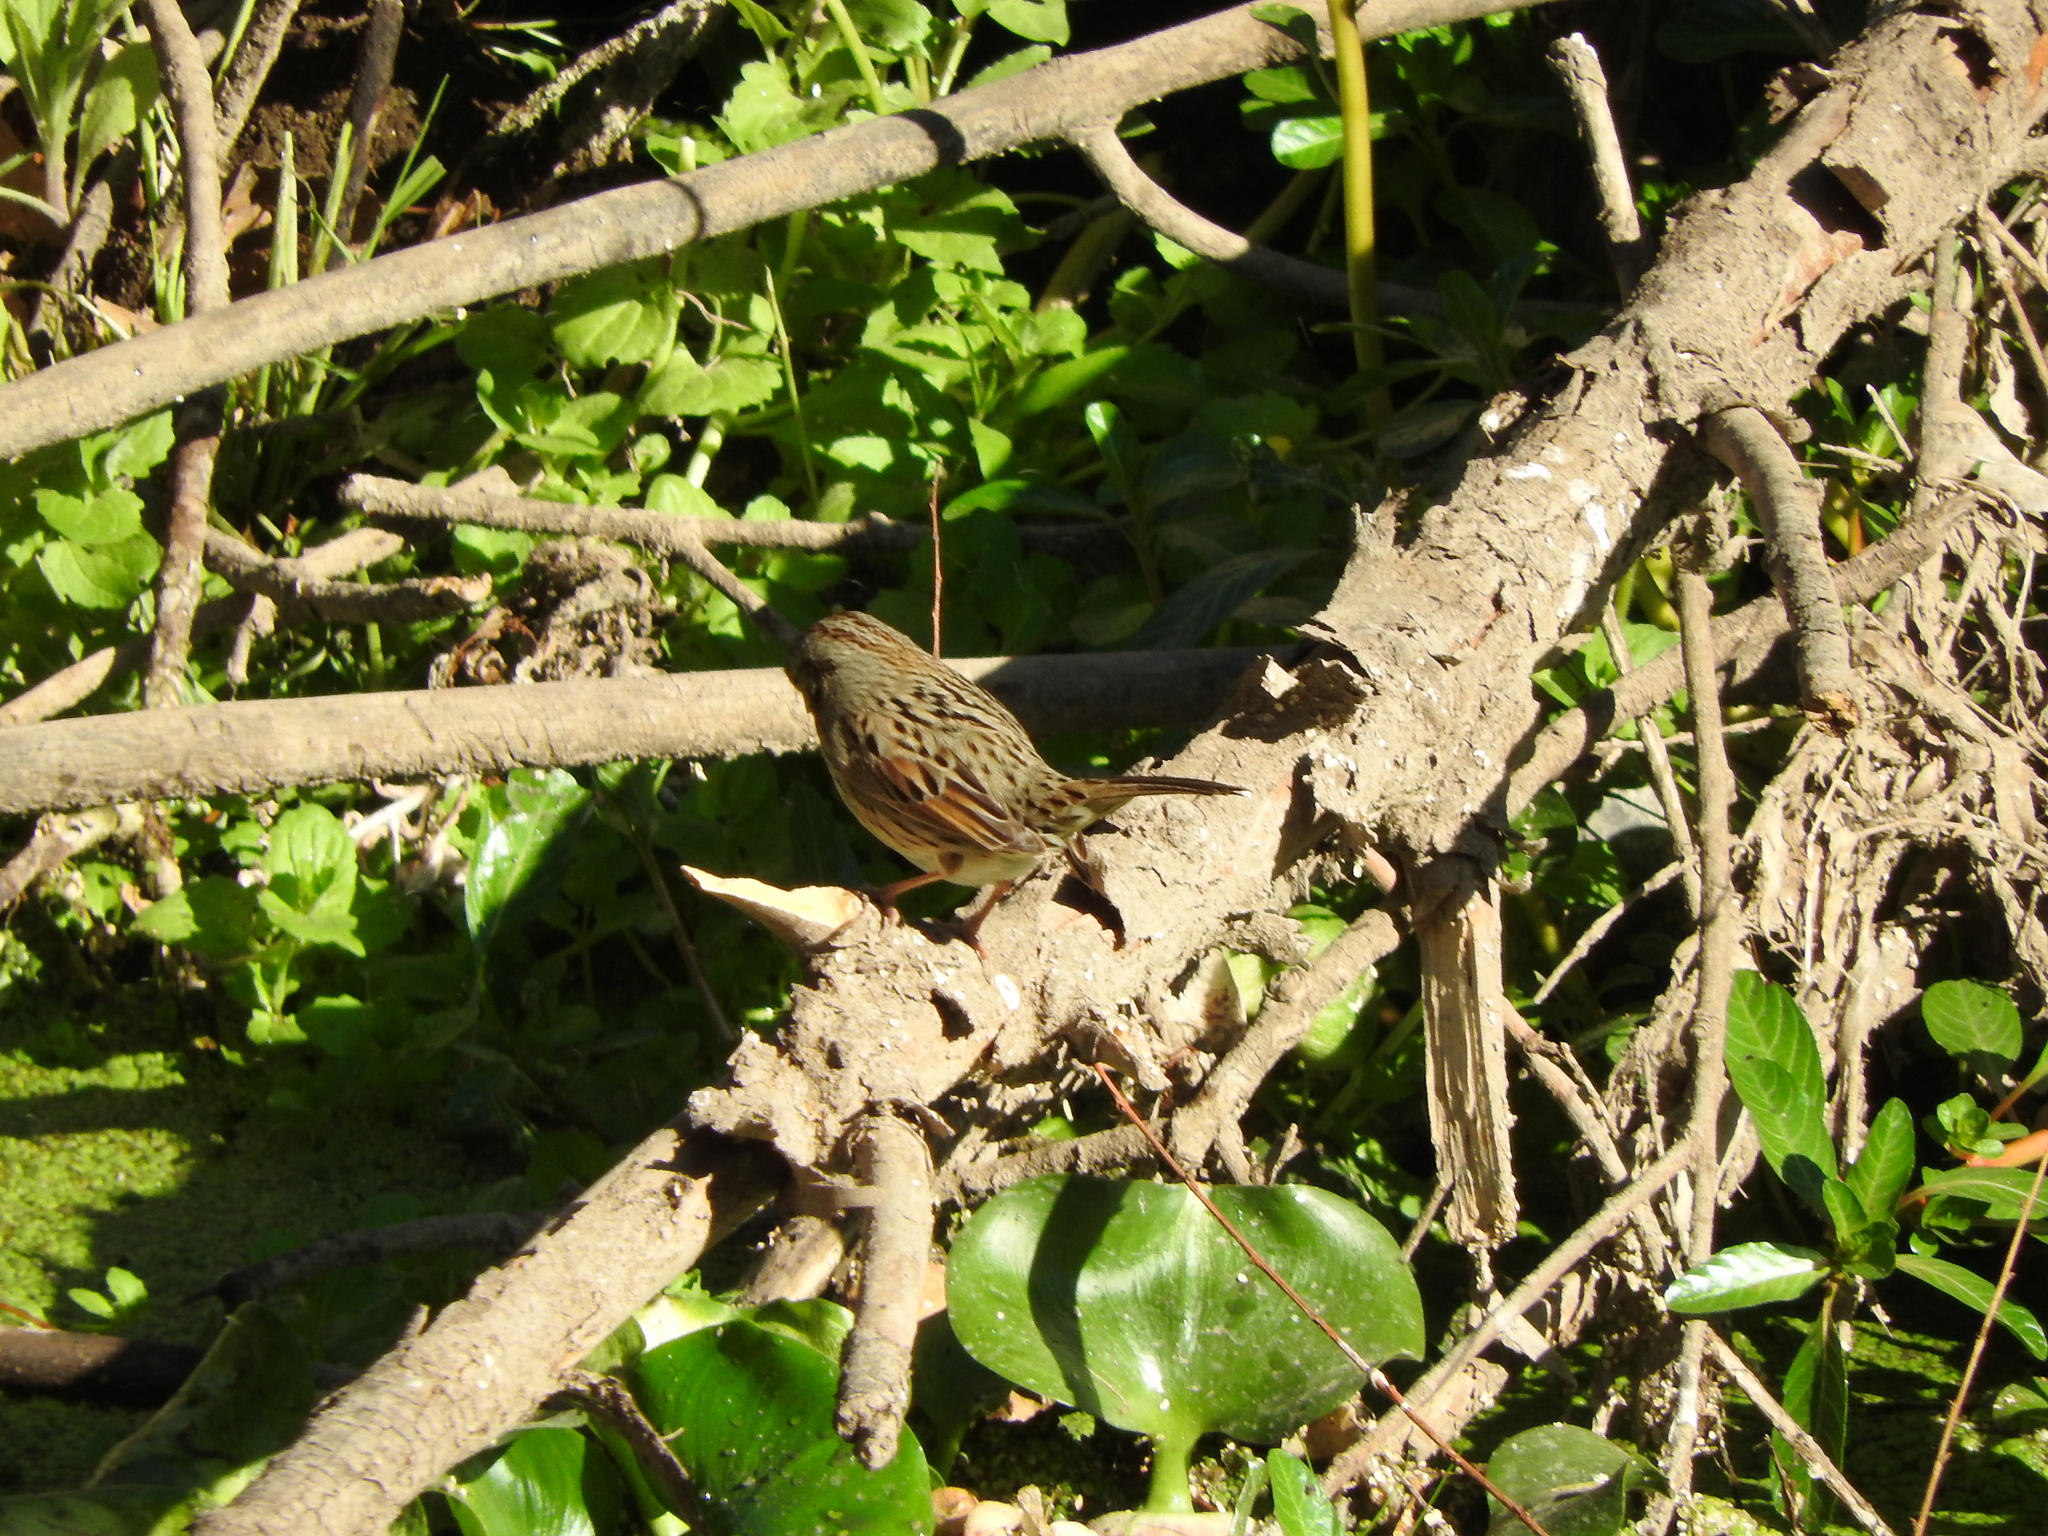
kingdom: Animalia
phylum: Chordata
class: Aves
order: Passeriformes
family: Passerellidae
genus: Melospiza
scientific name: Melospiza lincolnii
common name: Lincoln's sparrow
